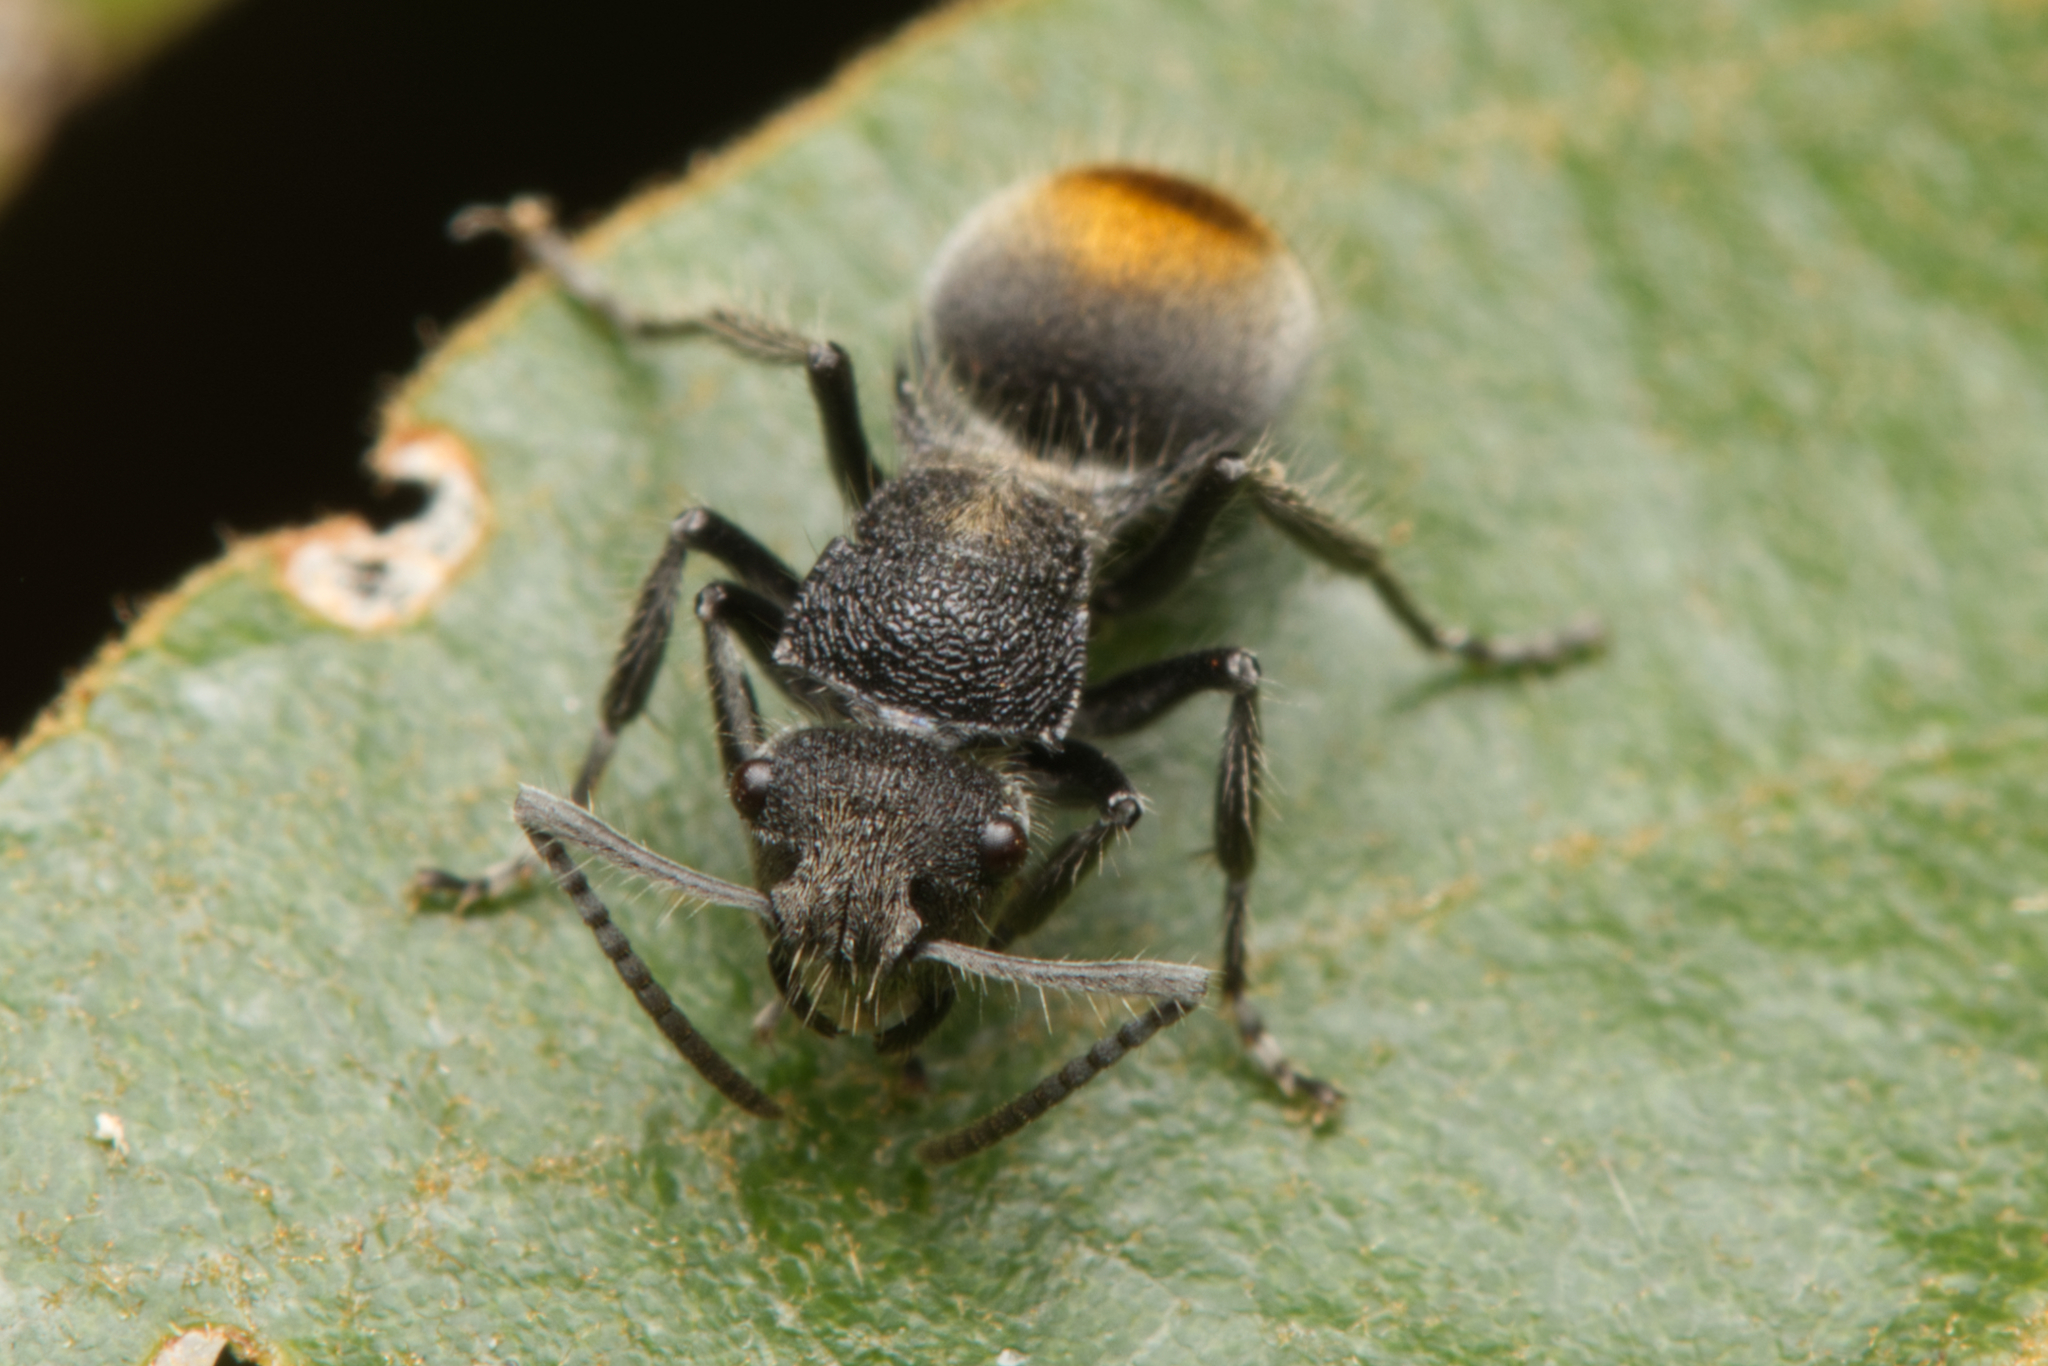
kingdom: Animalia
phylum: Arthropoda
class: Insecta
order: Hymenoptera
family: Formicidae
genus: Polyrhachis
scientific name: Polyrhachis vermiculosa
